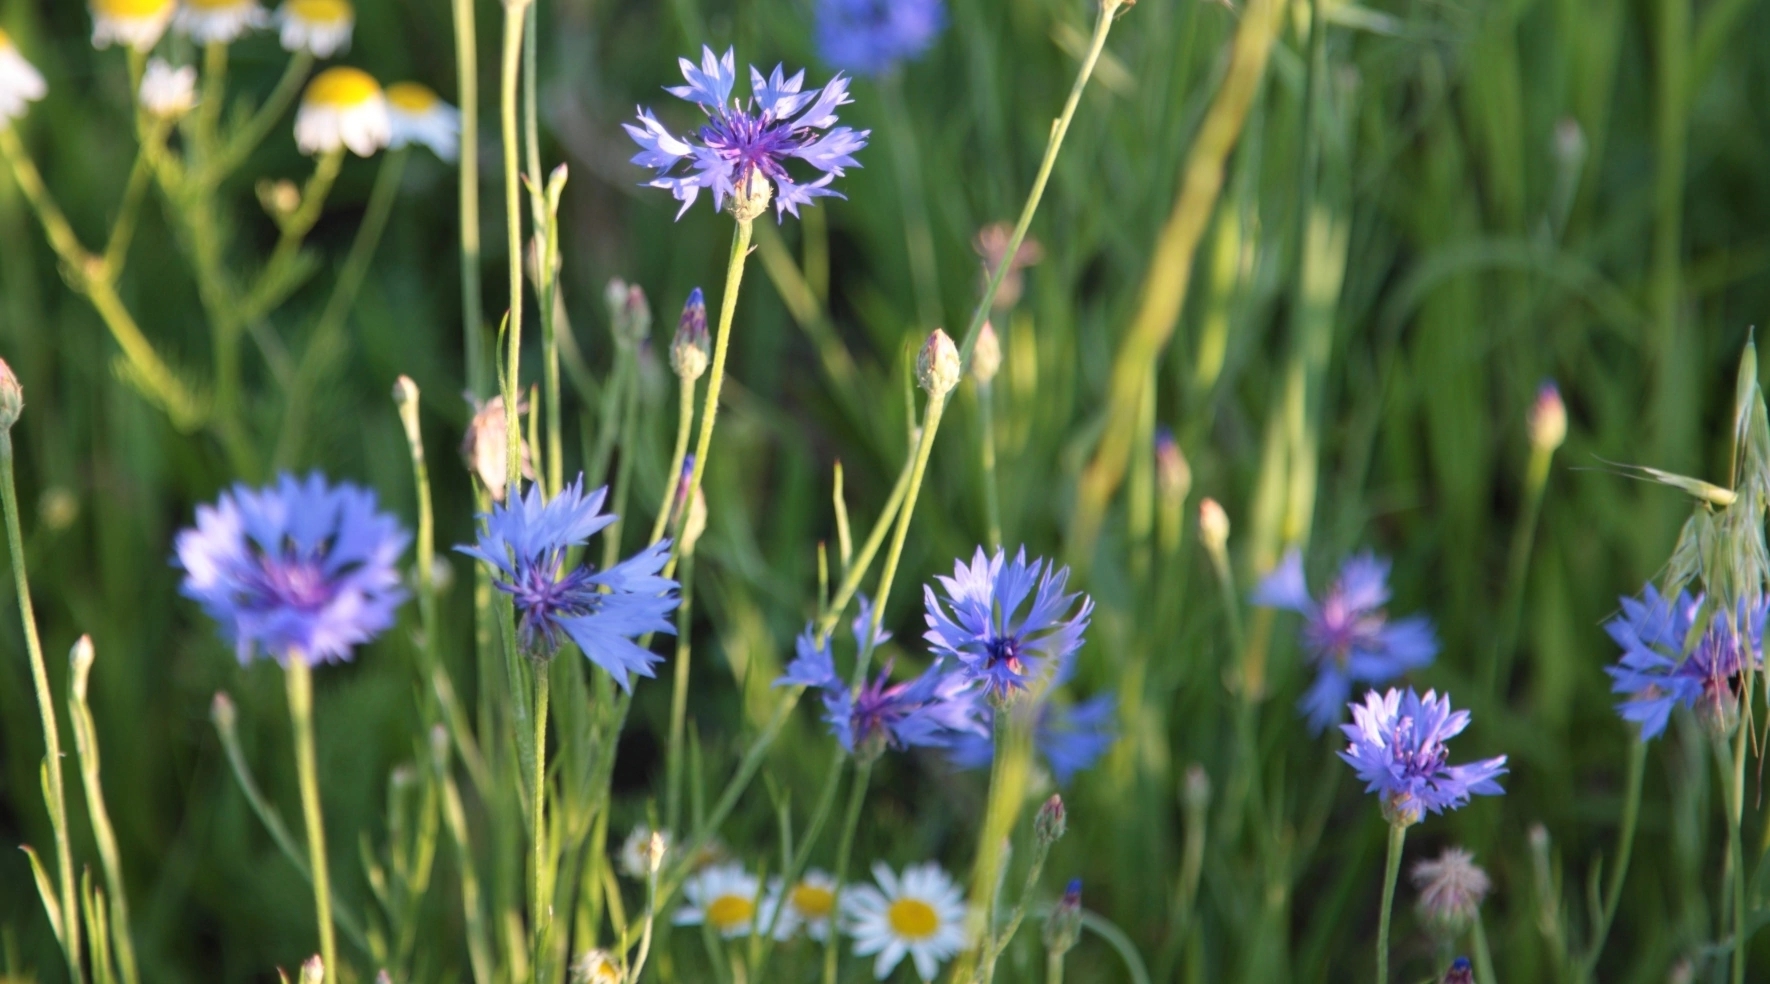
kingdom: Plantae
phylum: Tracheophyta
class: Magnoliopsida
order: Asterales
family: Asteraceae
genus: Centaurea
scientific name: Centaurea cyanus
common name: Cornflower
